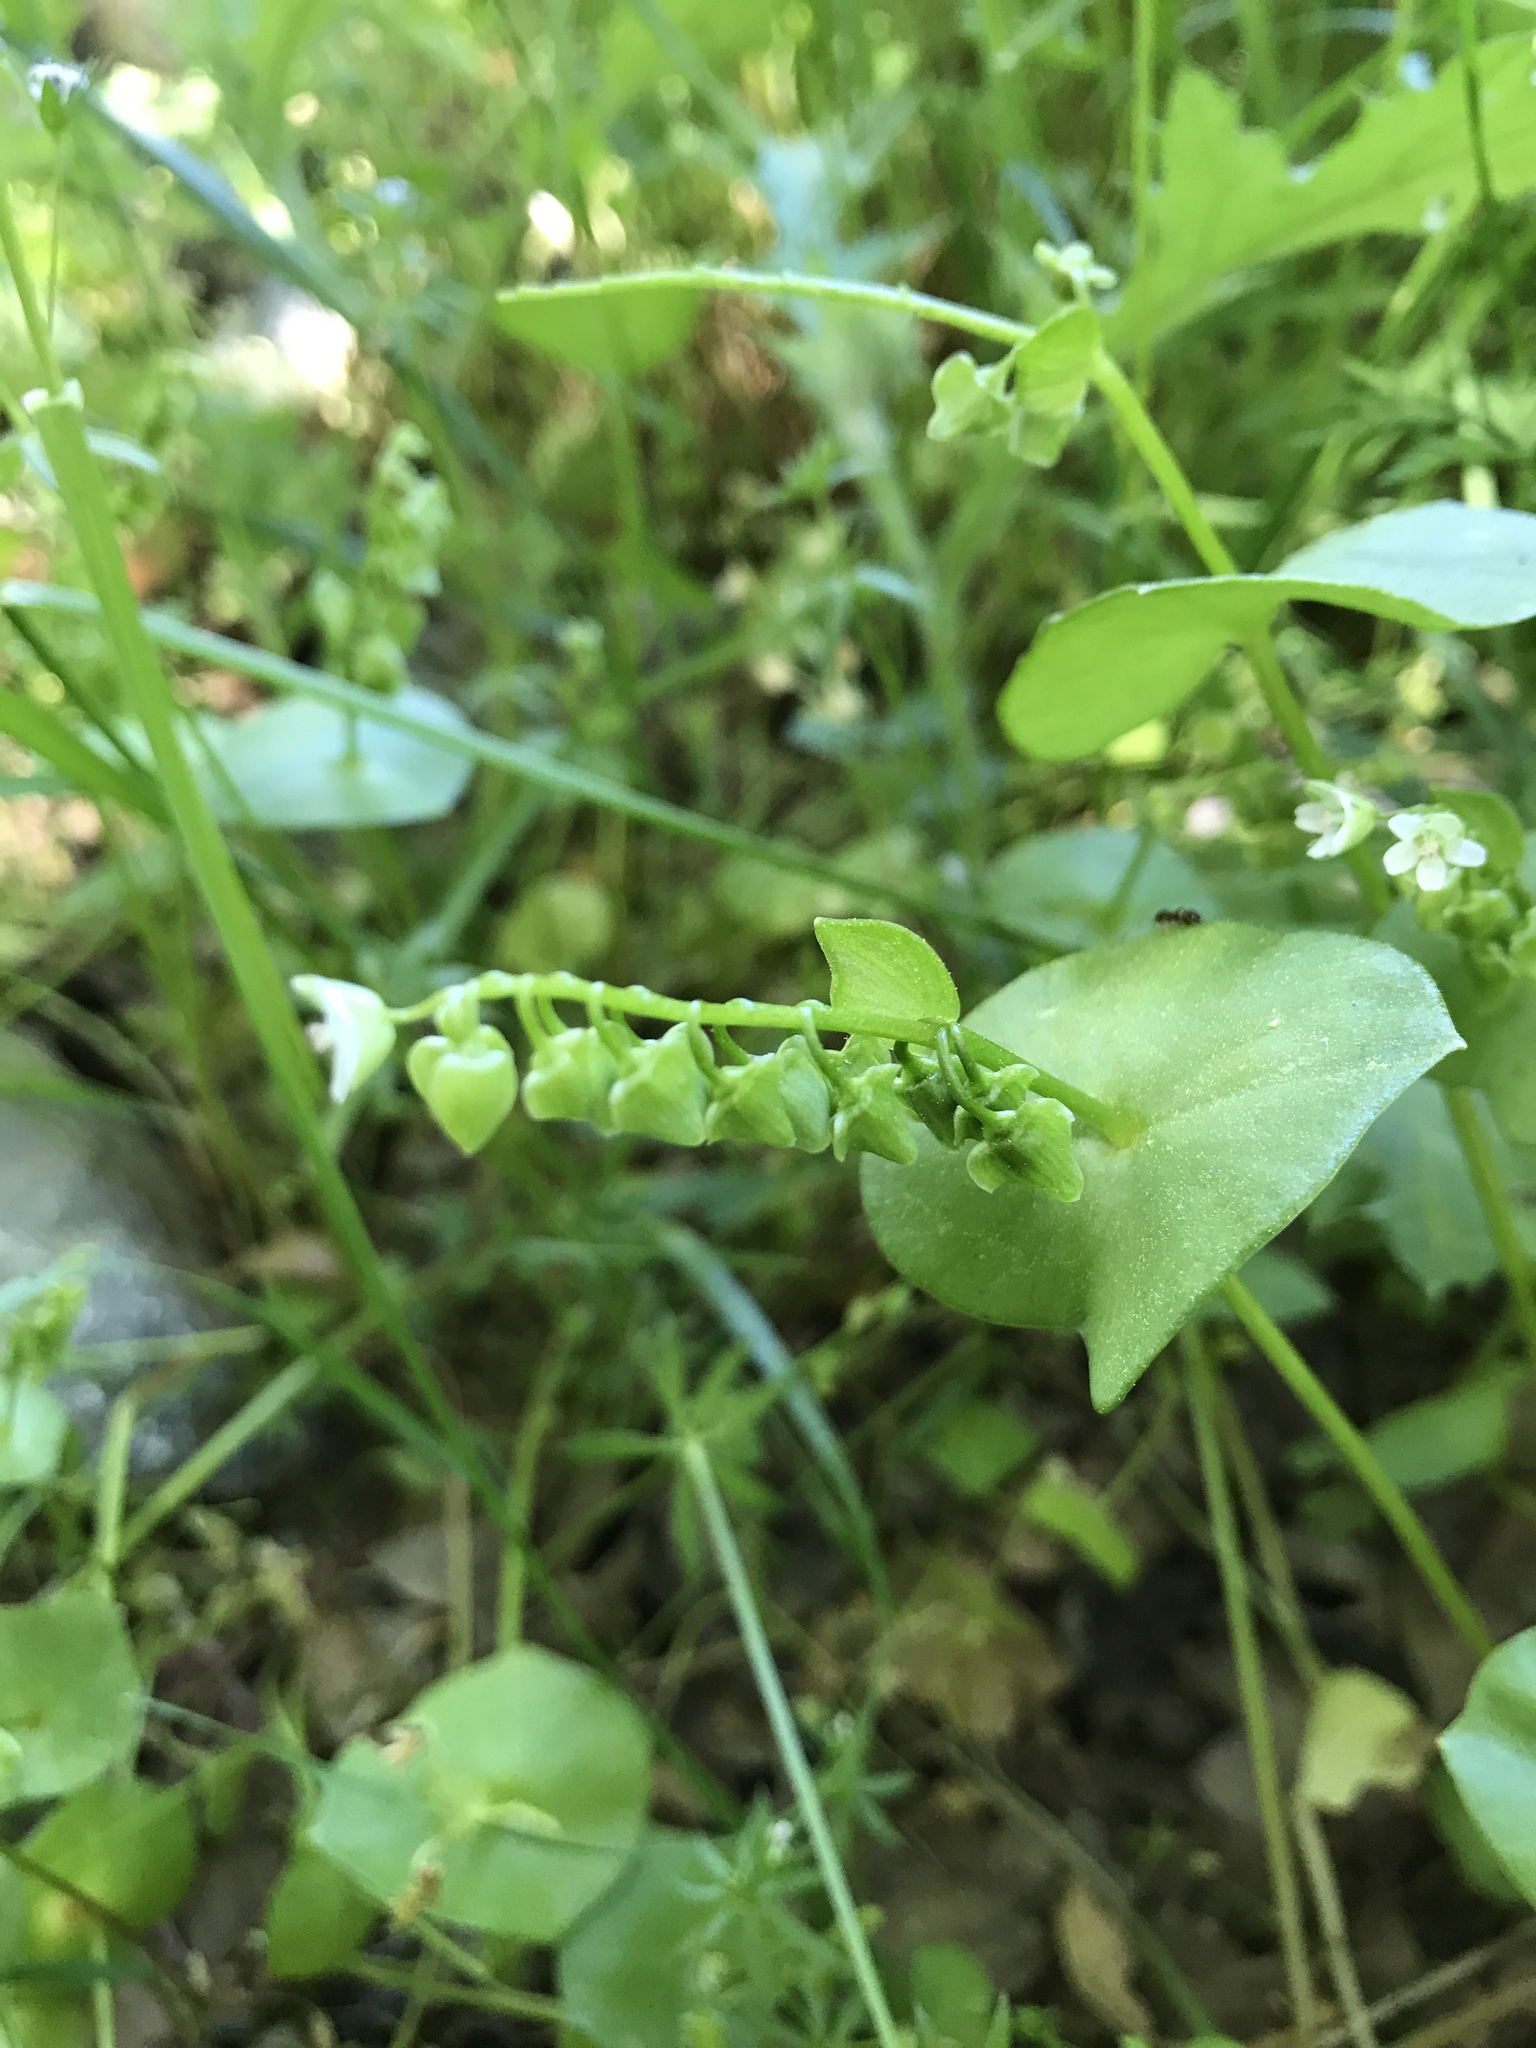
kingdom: Plantae
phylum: Tracheophyta
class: Magnoliopsida
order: Caryophyllales
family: Montiaceae
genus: Claytonia
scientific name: Claytonia perfoliata
